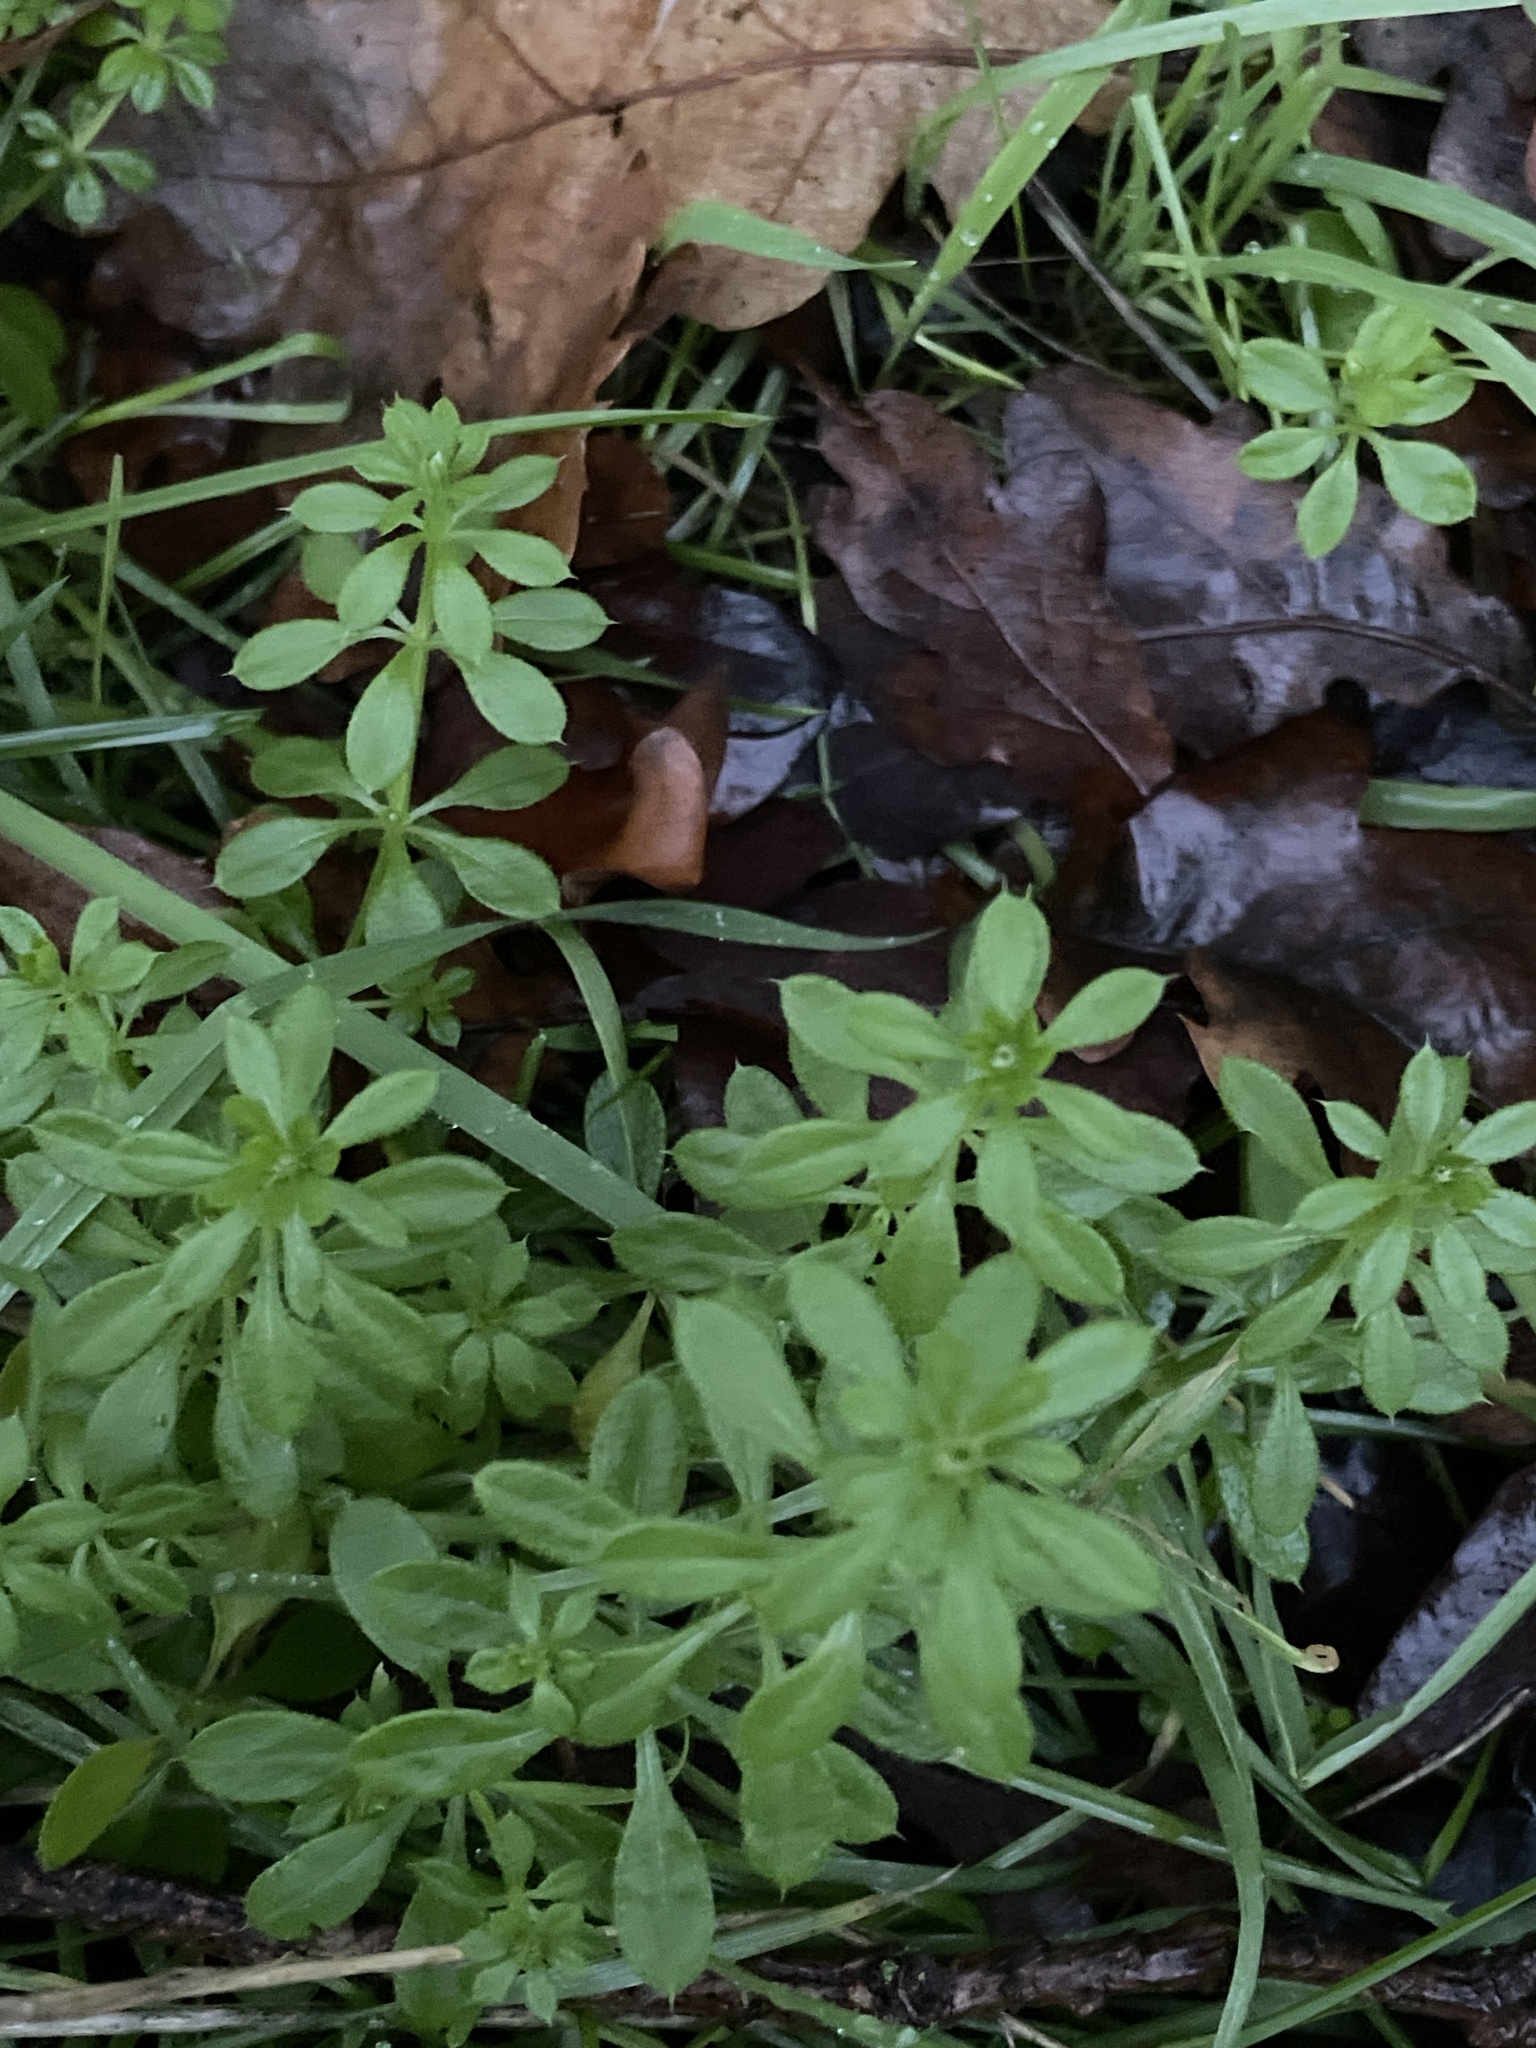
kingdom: Plantae
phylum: Tracheophyta
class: Magnoliopsida
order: Gentianales
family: Rubiaceae
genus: Galium
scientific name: Galium aparine
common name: Cleavers
